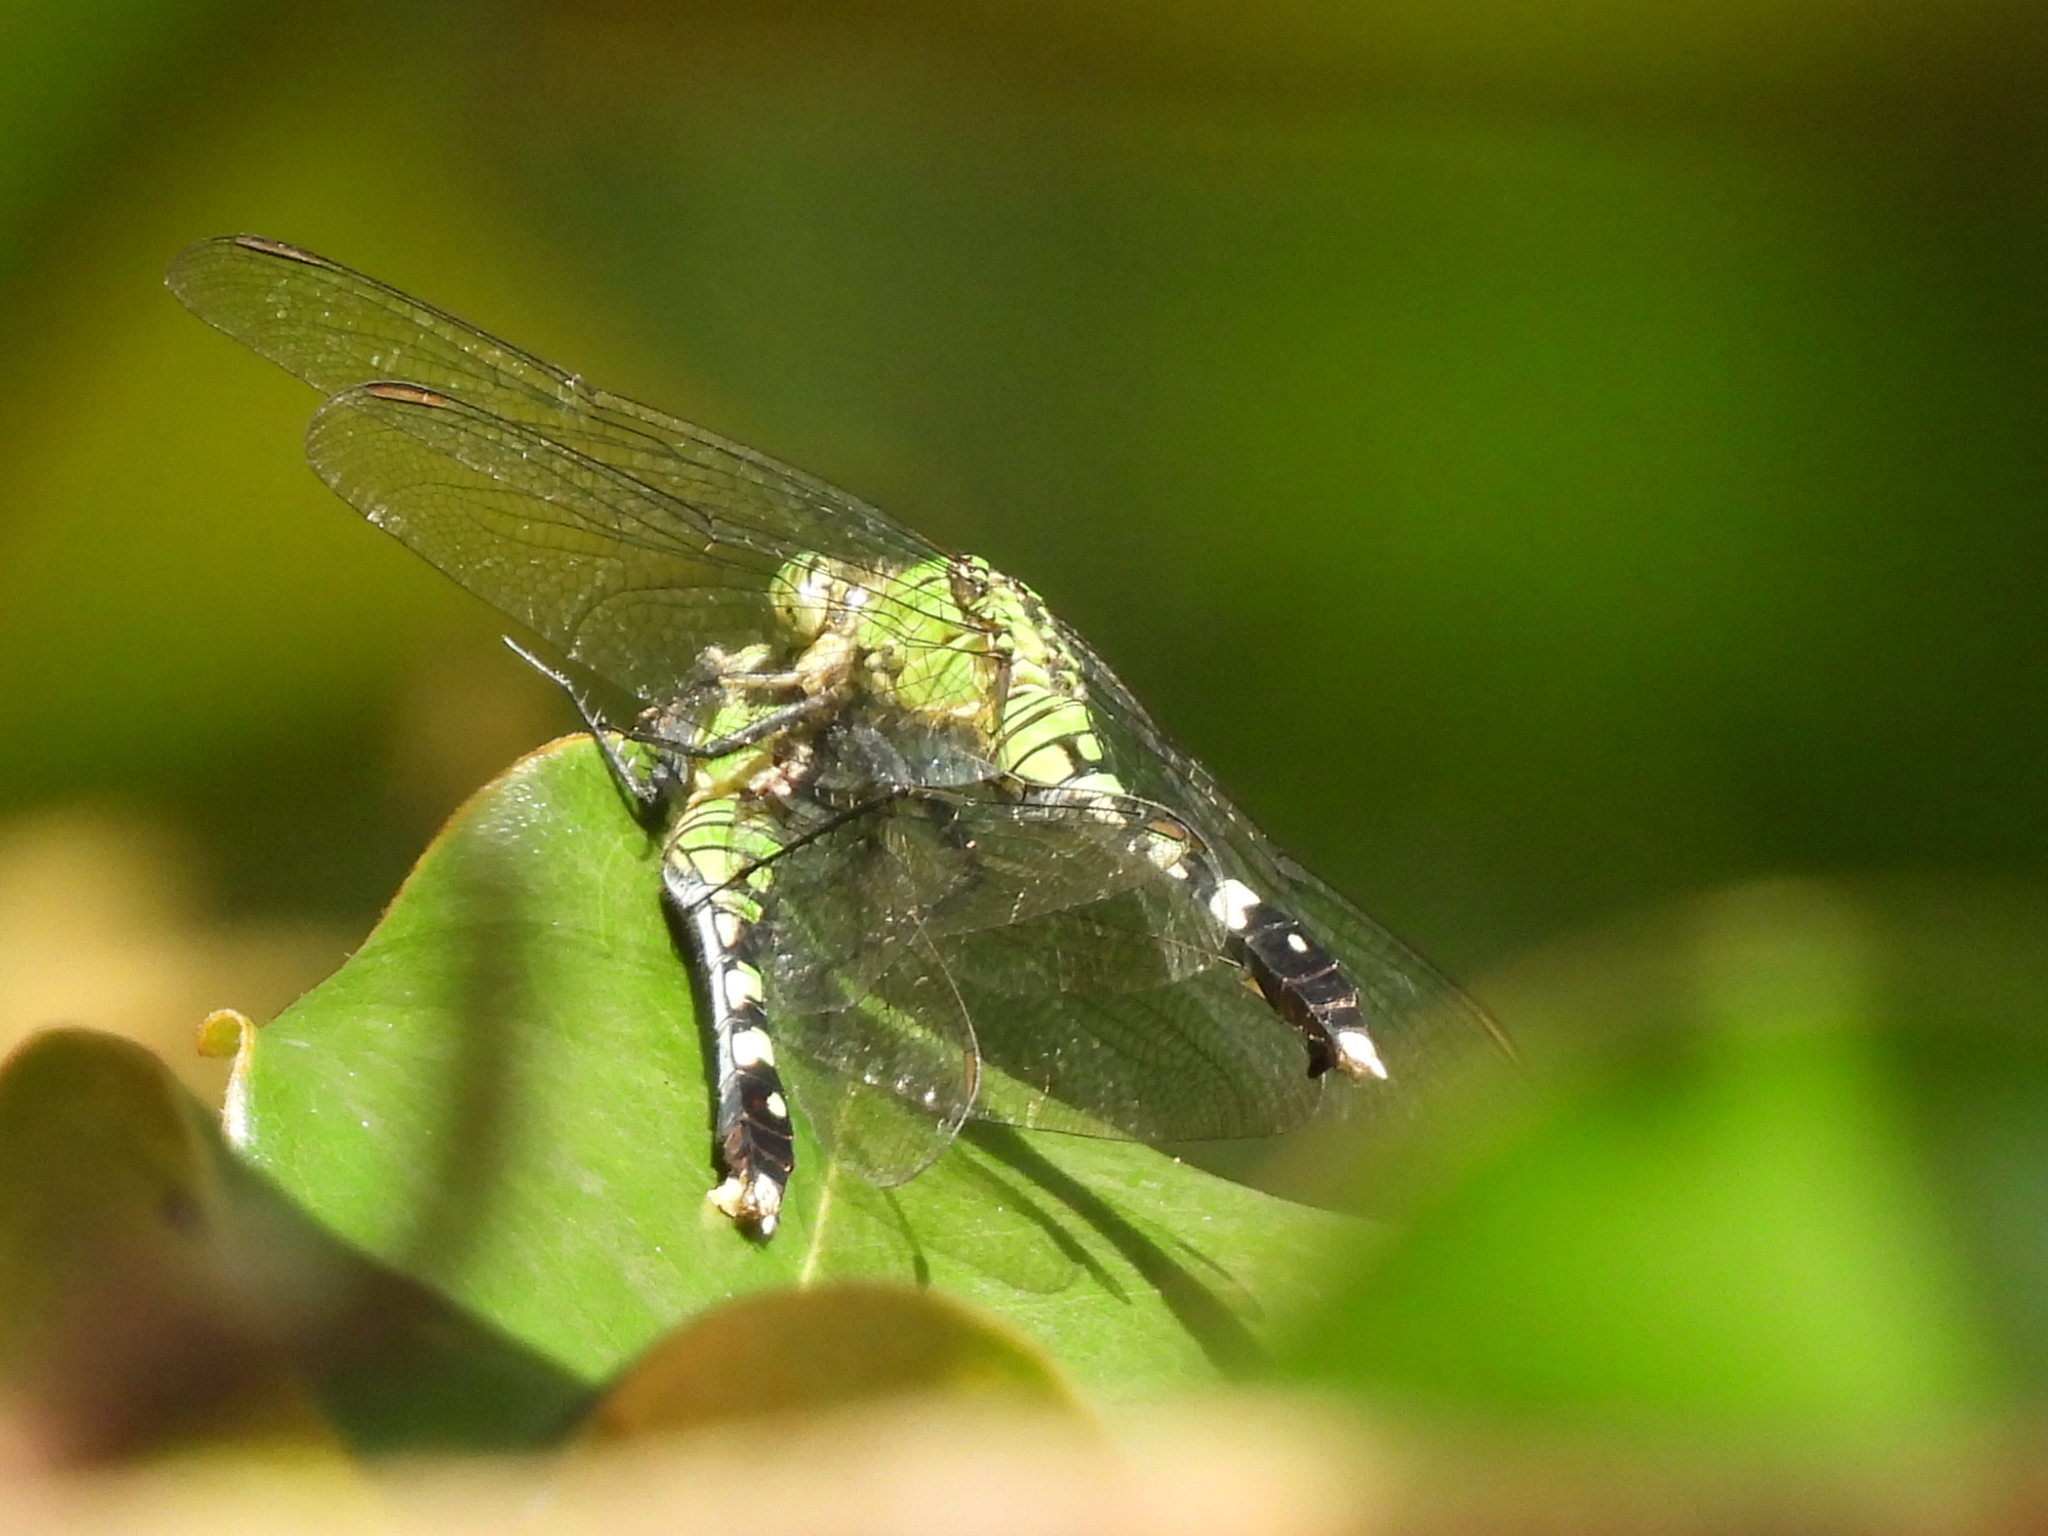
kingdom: Animalia
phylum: Arthropoda
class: Insecta
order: Odonata
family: Libellulidae
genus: Erythemis
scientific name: Erythemis simplicicollis
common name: Eastern pondhawk
